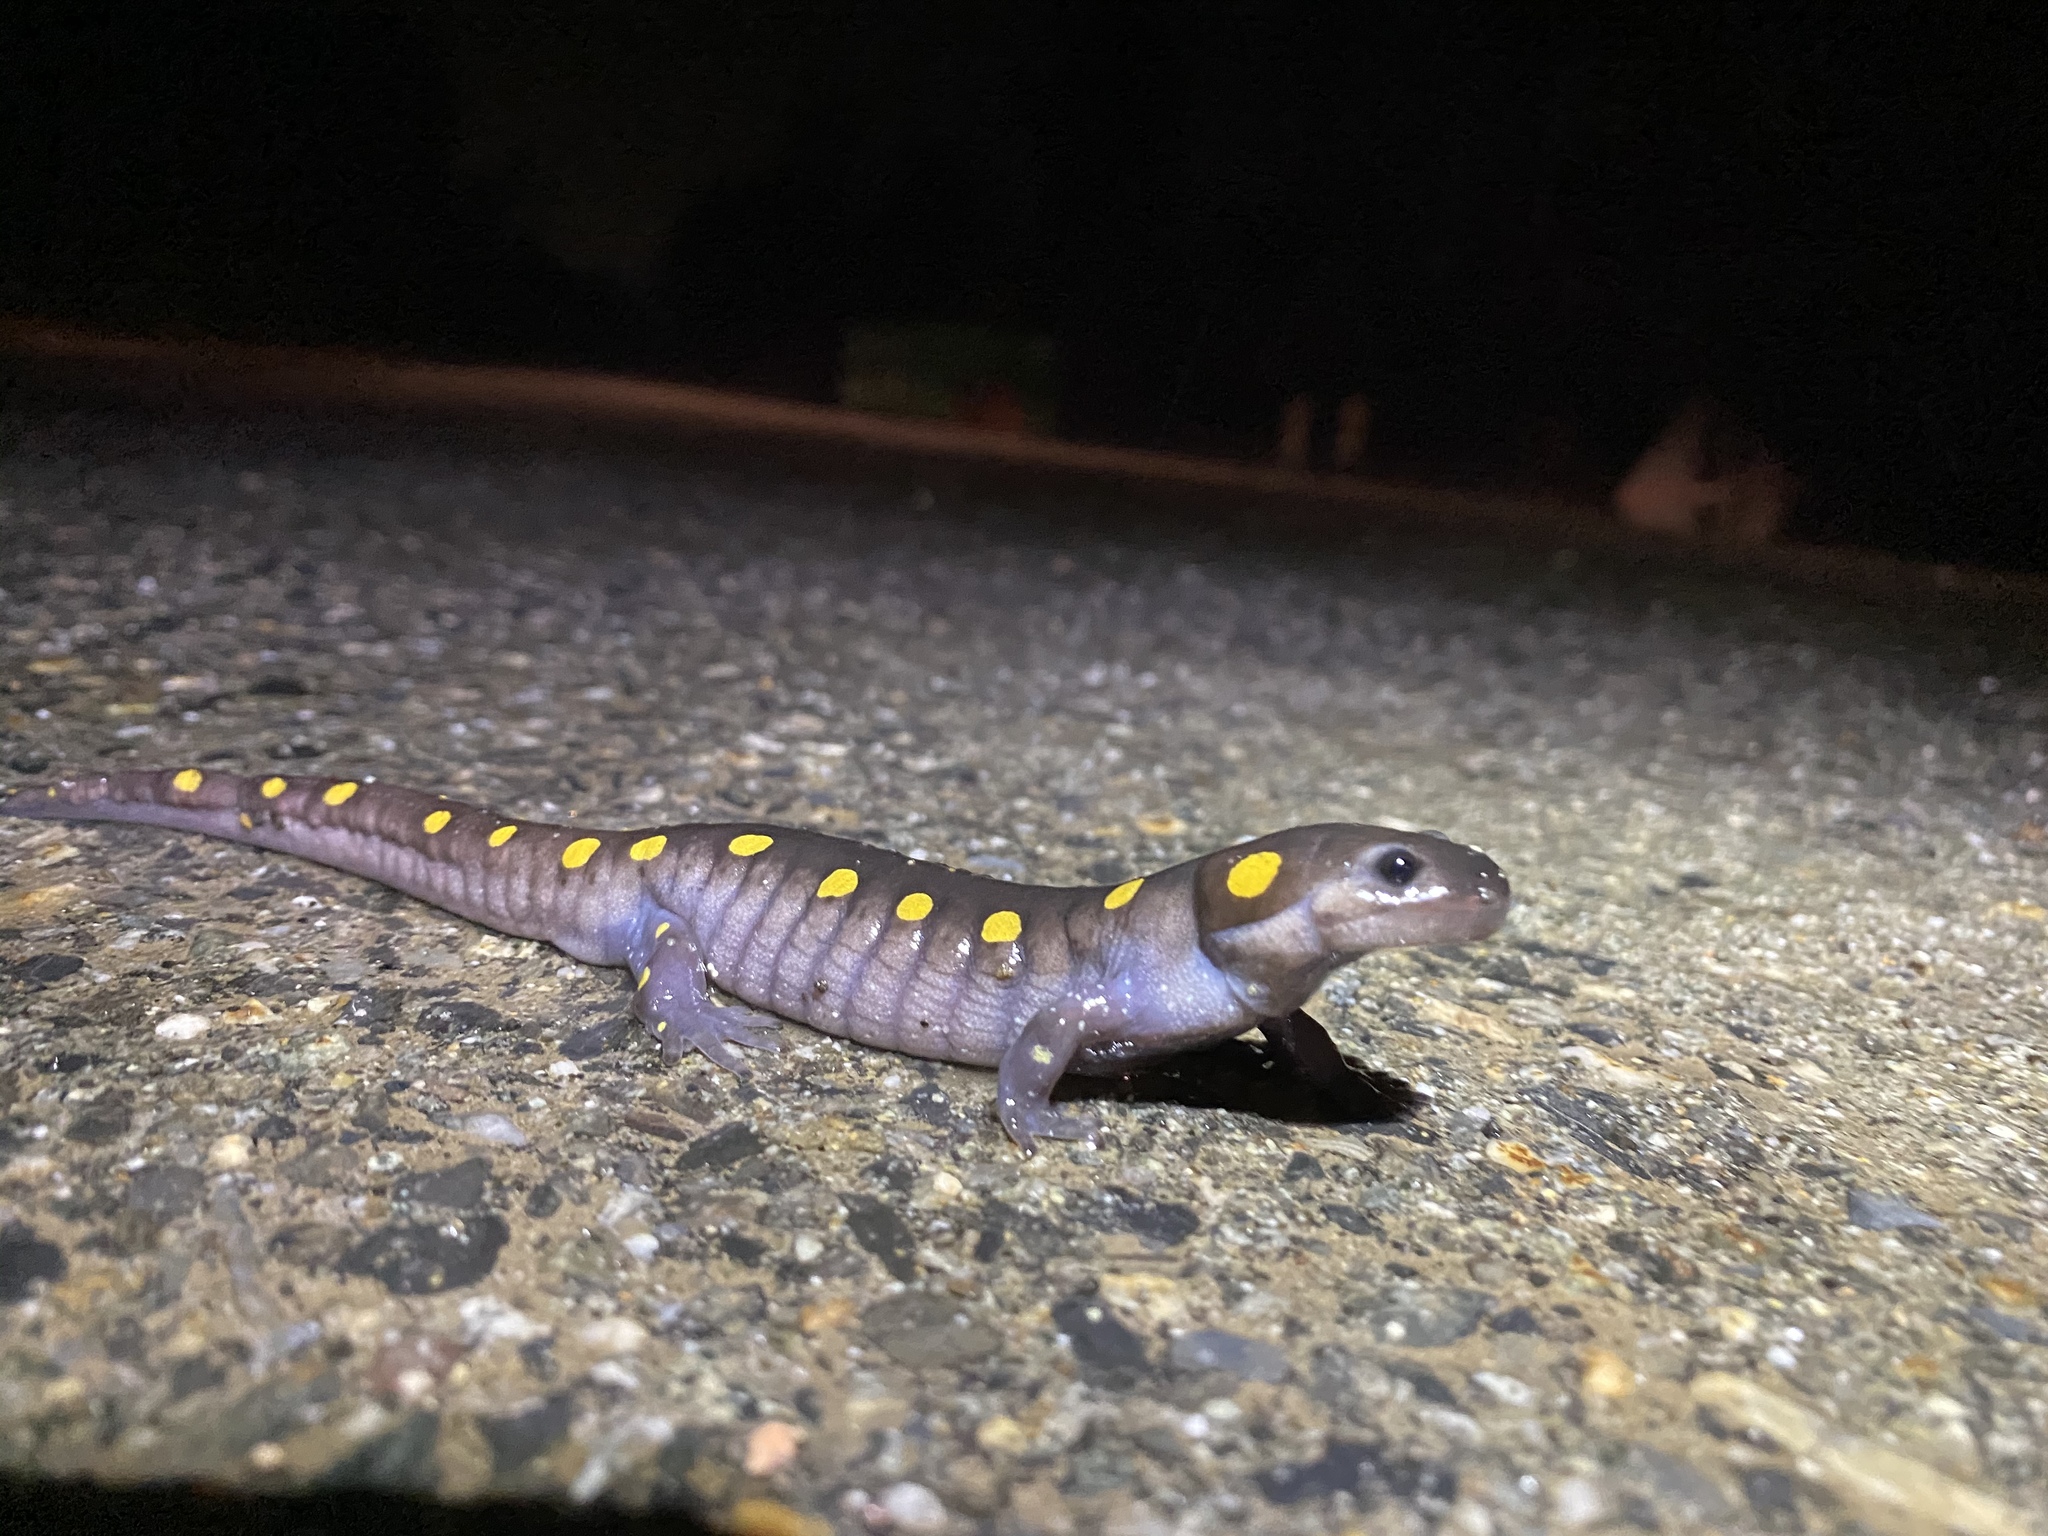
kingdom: Animalia
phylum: Chordata
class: Amphibia
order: Caudata
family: Ambystomatidae
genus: Ambystoma
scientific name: Ambystoma maculatum
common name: Spotted salamander
